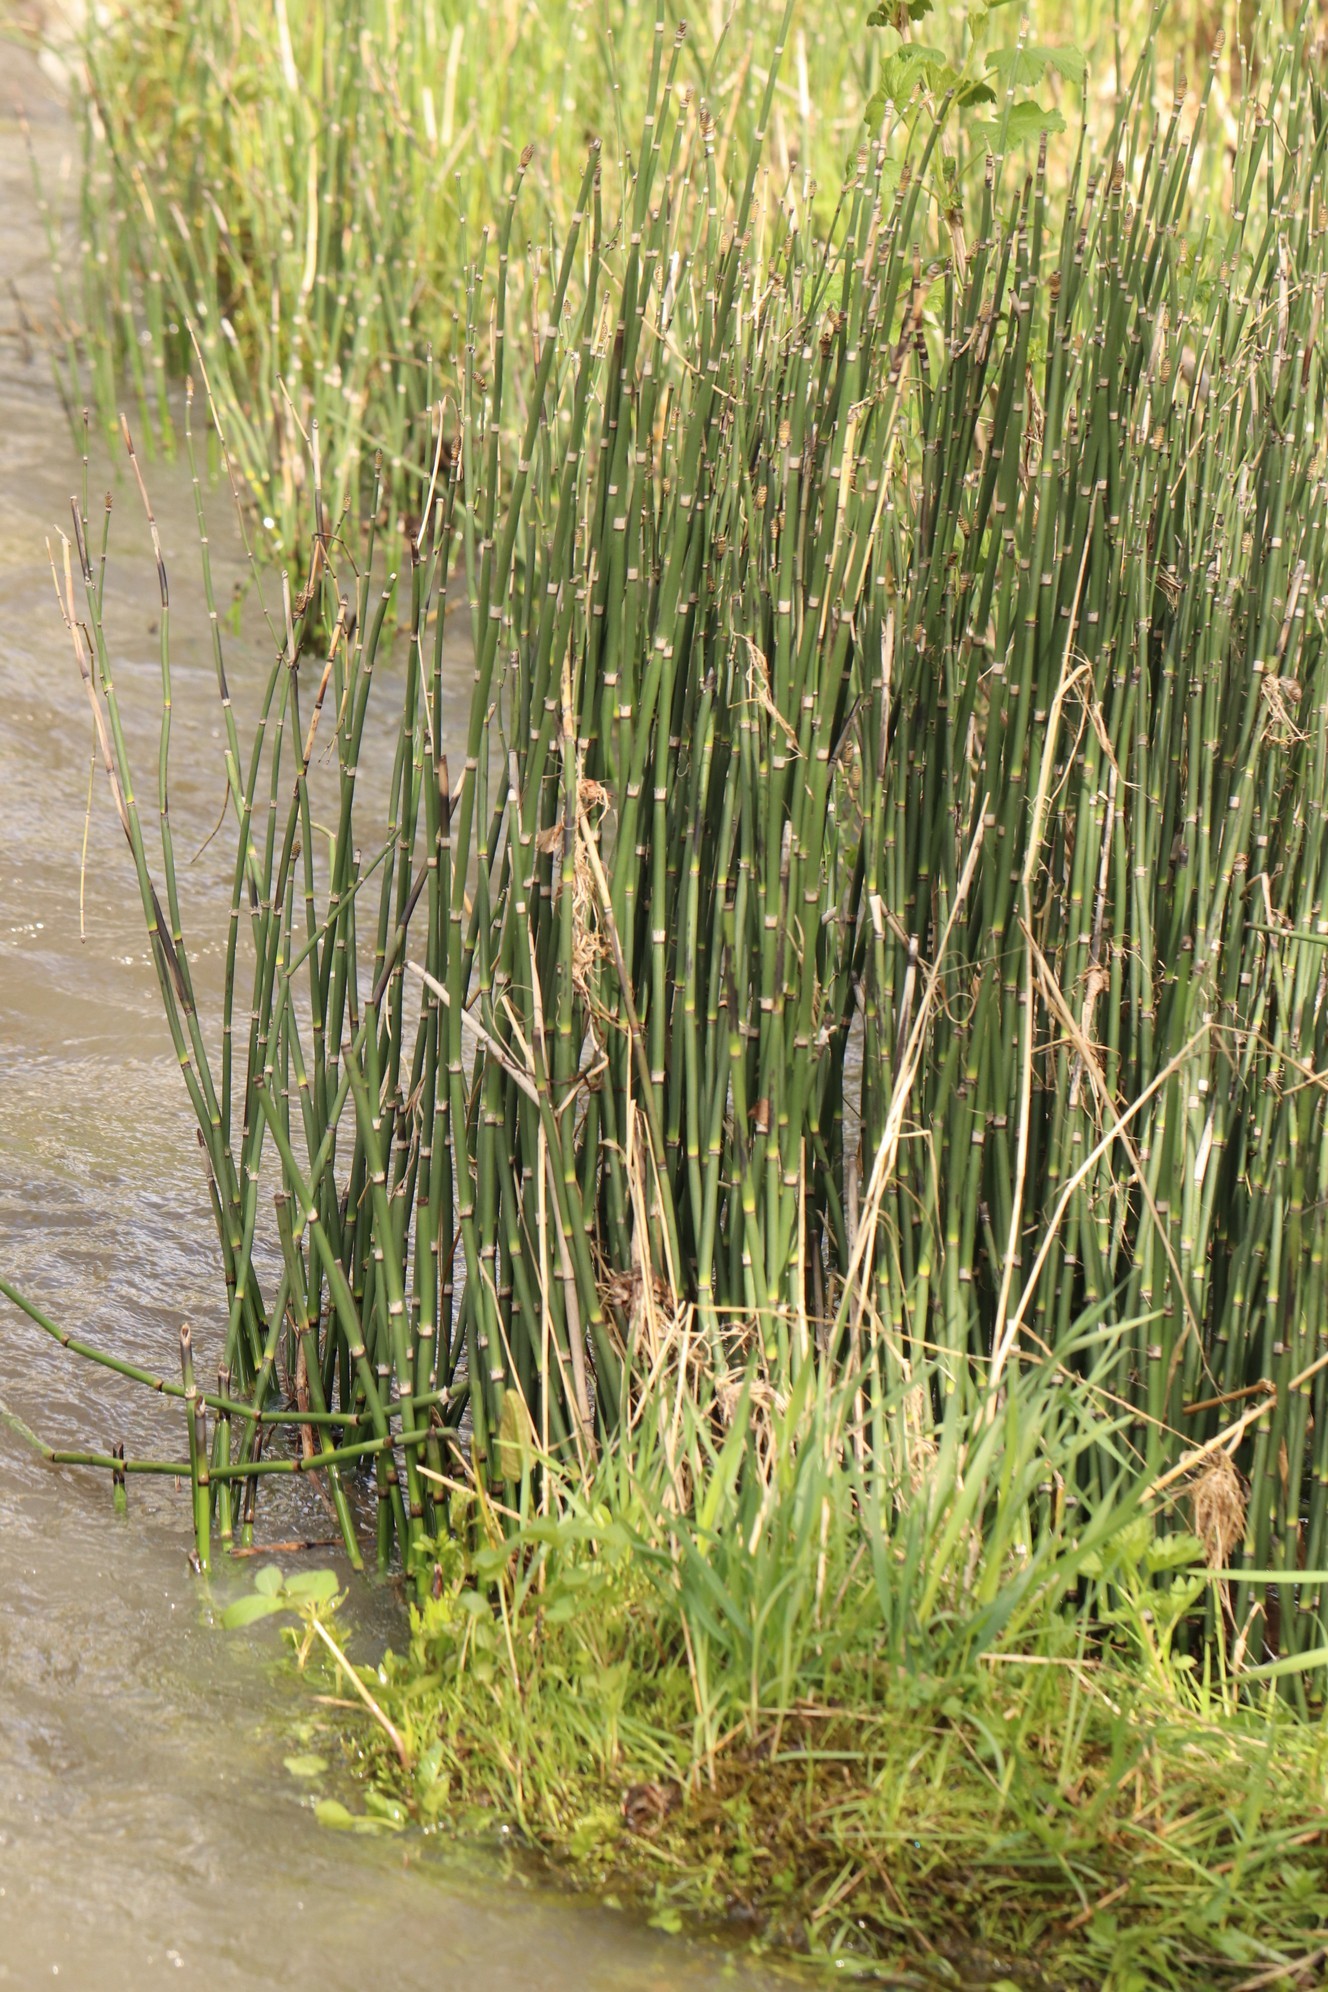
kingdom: Plantae
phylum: Tracheophyta
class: Polypodiopsida
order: Equisetales
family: Equisetaceae
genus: Equisetum
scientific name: Equisetum hyemale
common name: Rough horsetail
